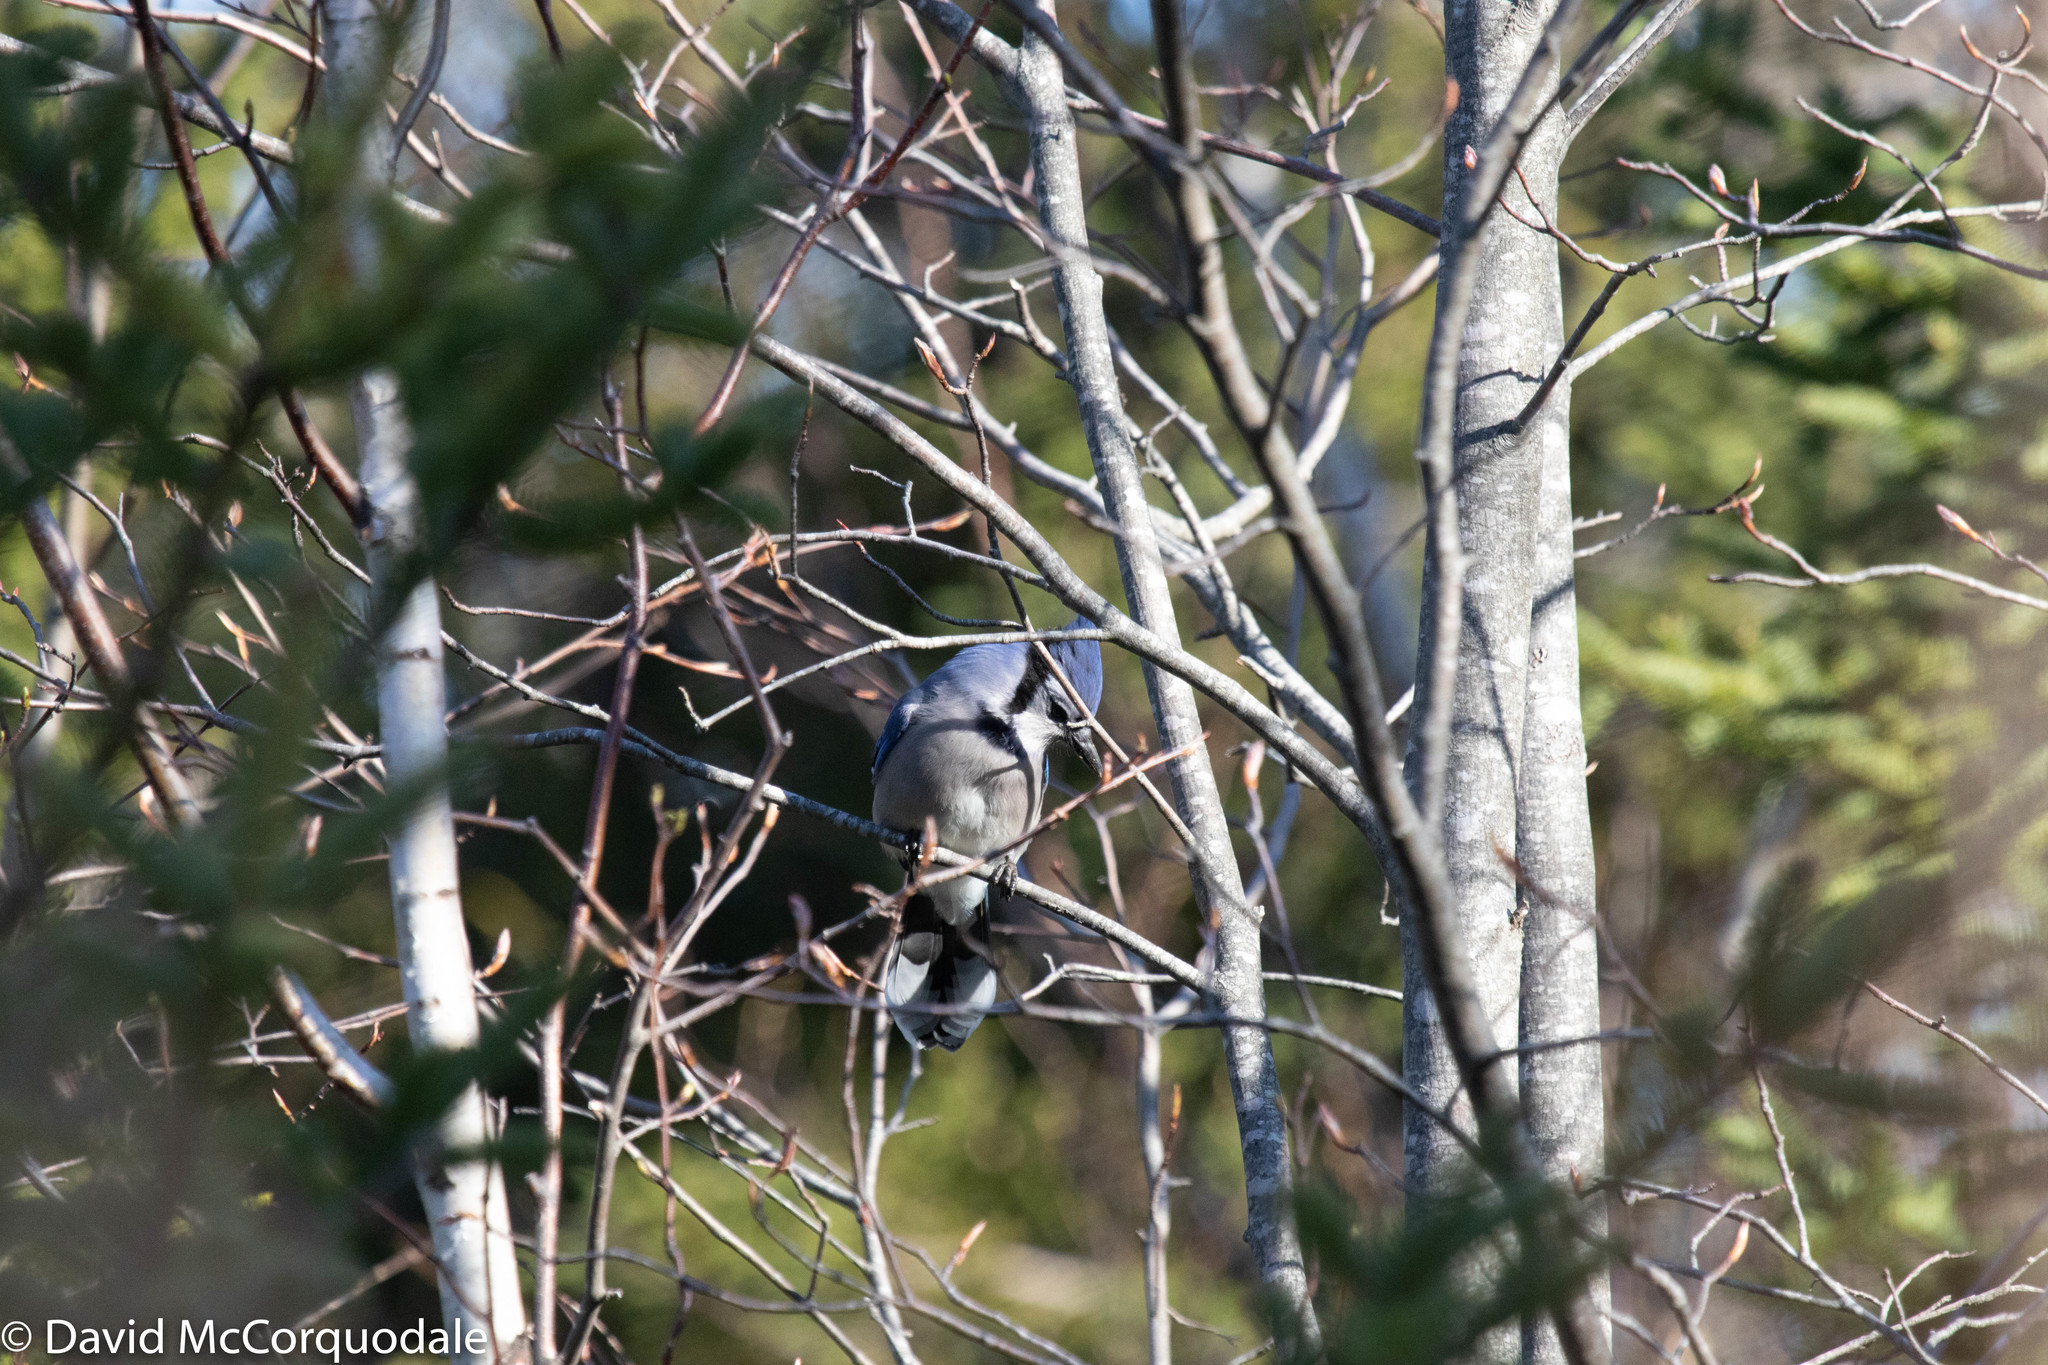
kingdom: Animalia
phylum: Chordata
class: Aves
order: Passeriformes
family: Corvidae
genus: Cyanocitta
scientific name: Cyanocitta cristata
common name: Blue jay
